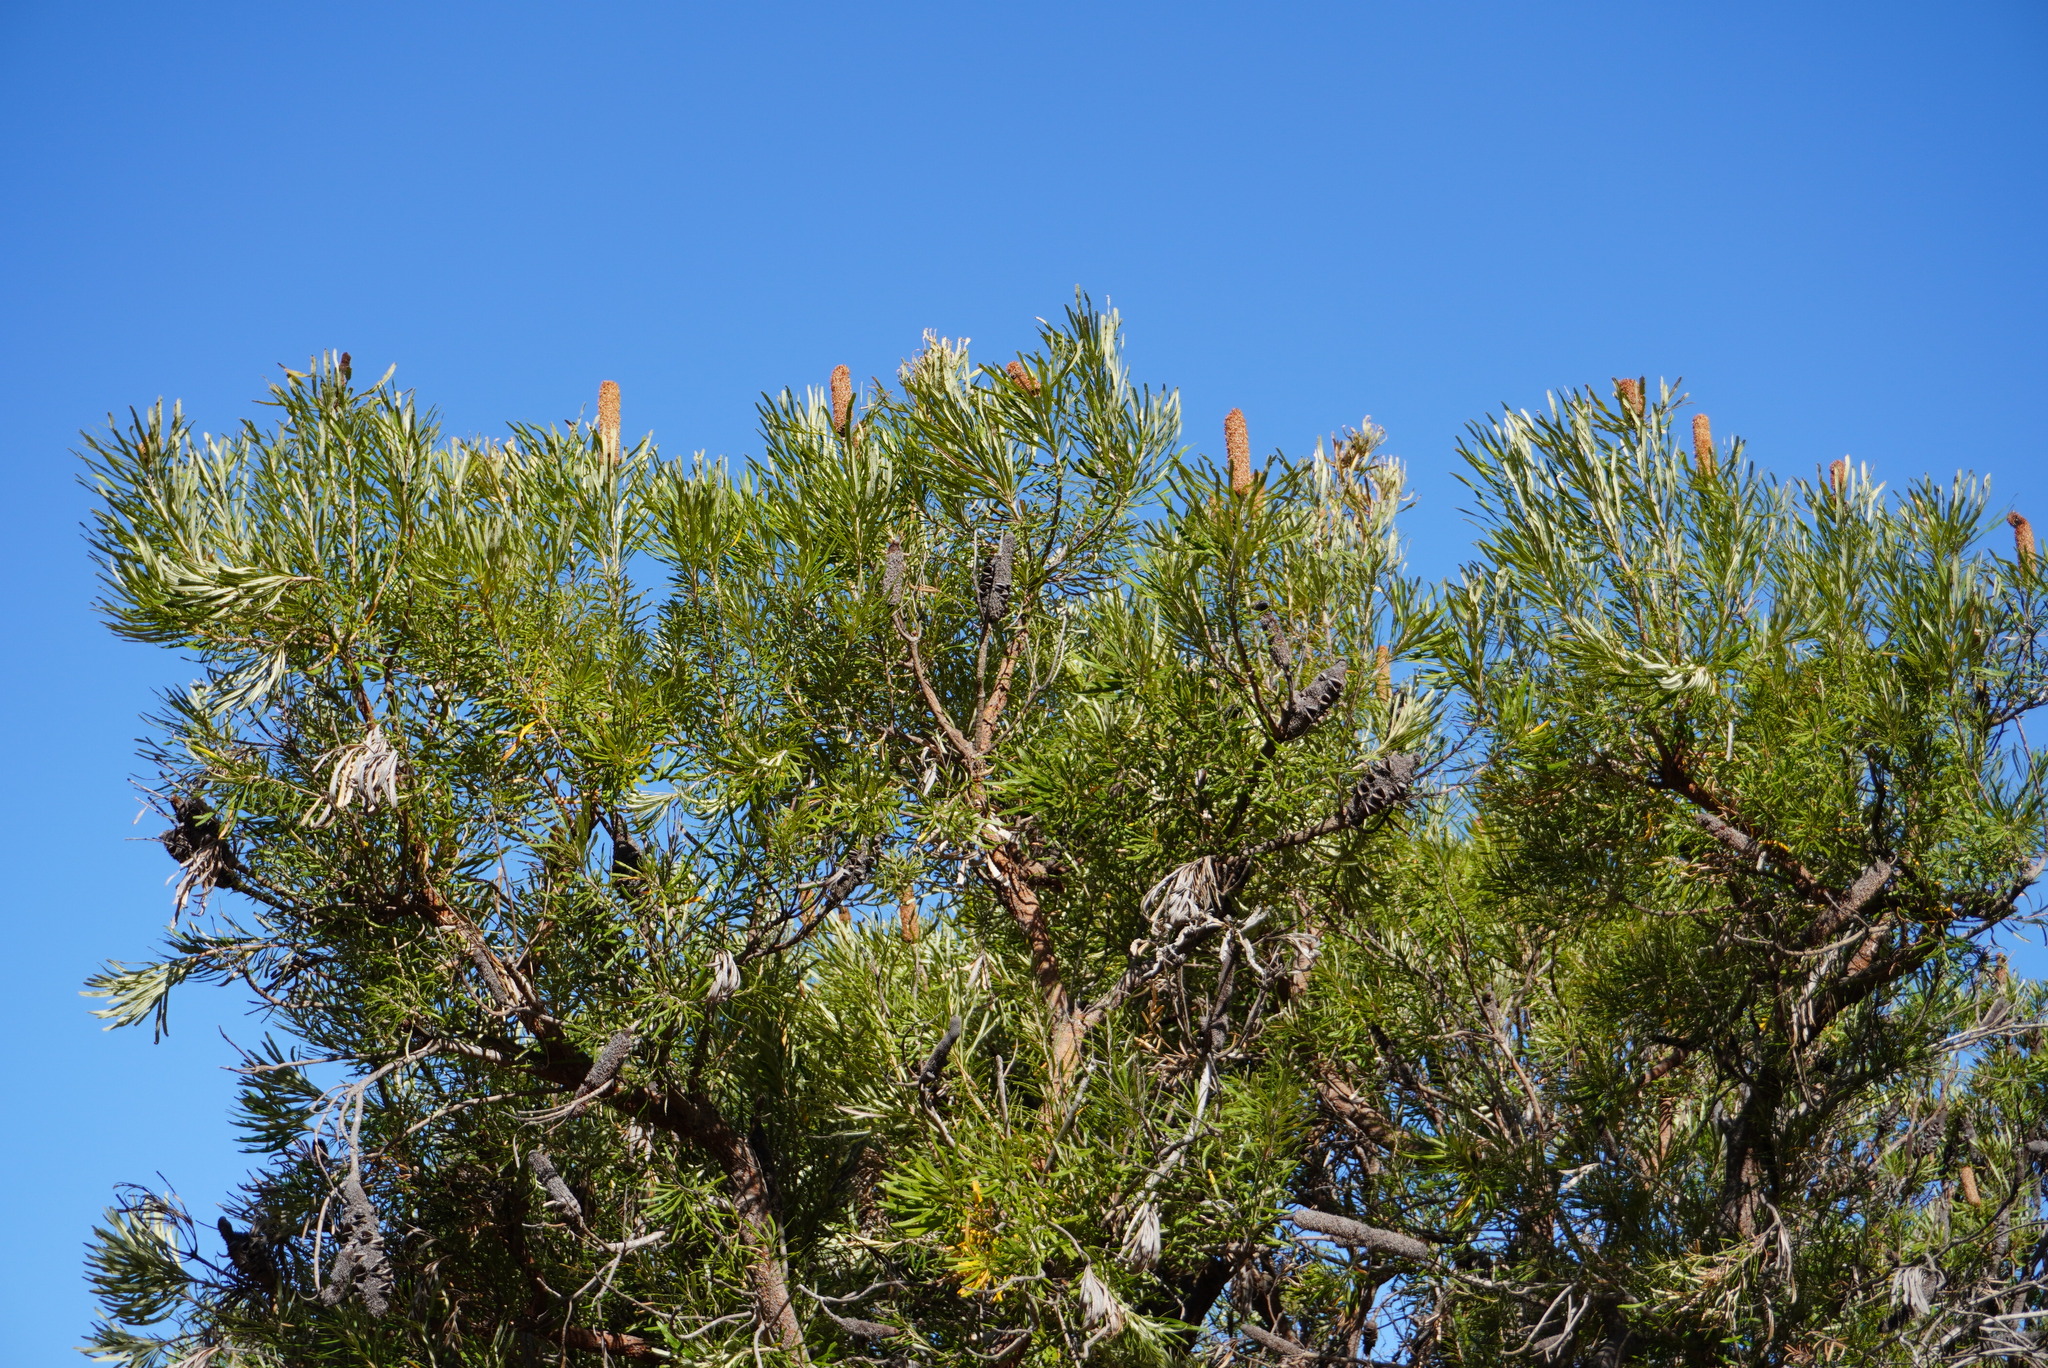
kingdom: Plantae
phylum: Tracheophyta
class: Magnoliopsida
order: Proteales
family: Proteaceae
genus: Banksia
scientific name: Banksia attenuata
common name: Coast banksia
